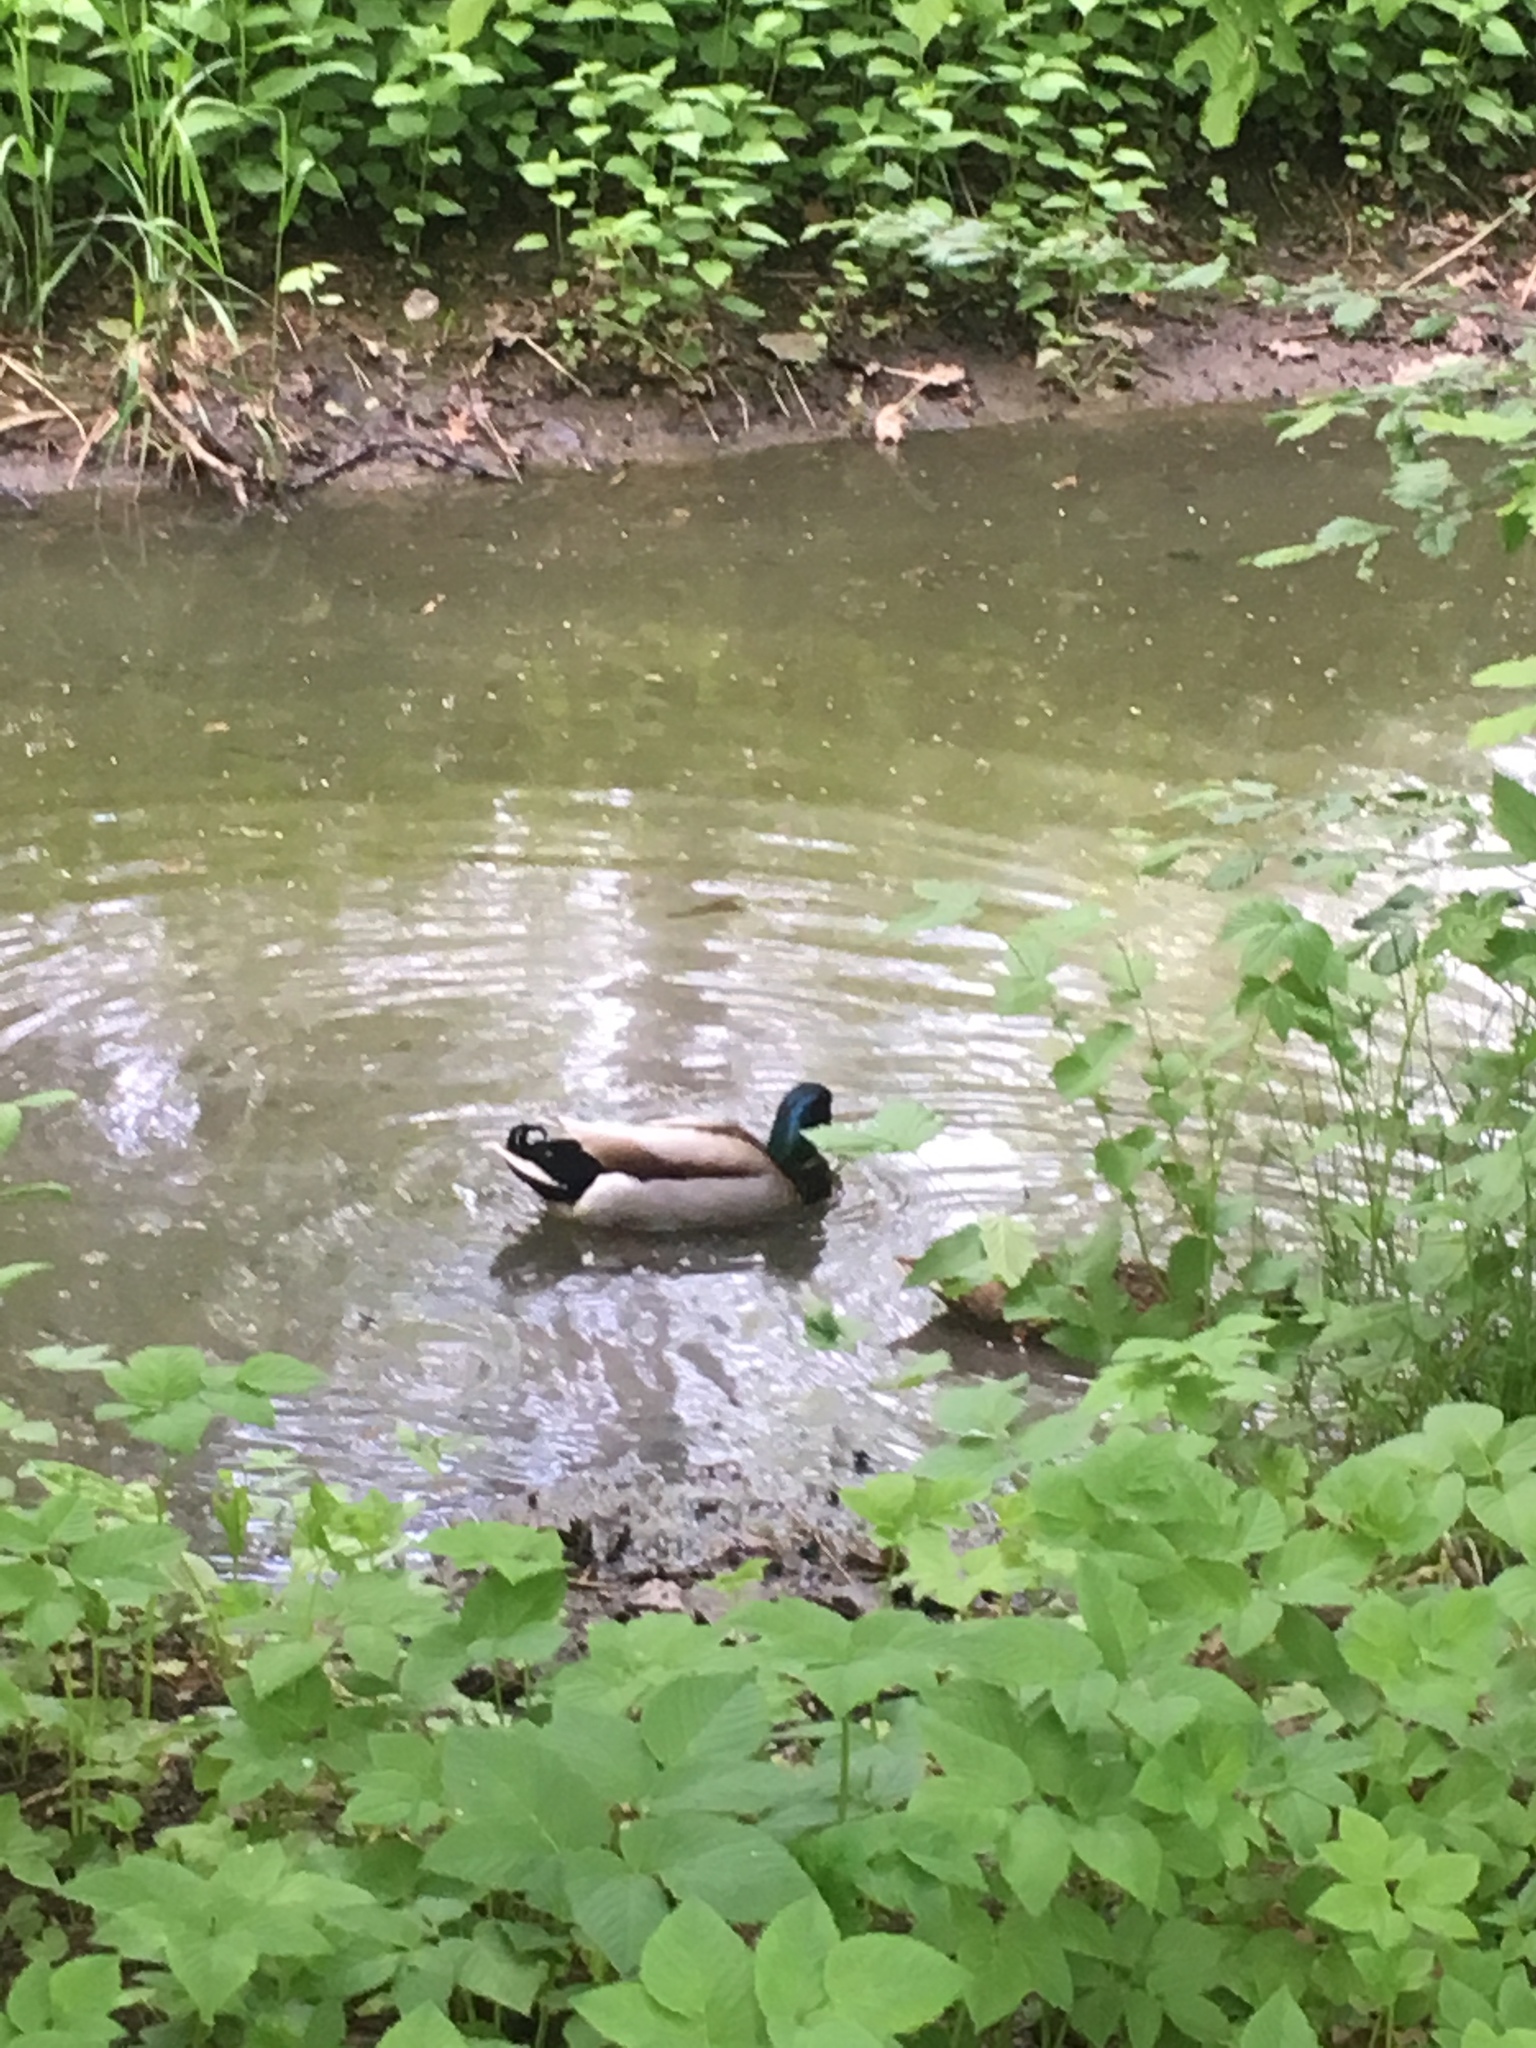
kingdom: Animalia
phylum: Chordata
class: Aves
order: Anseriformes
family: Anatidae
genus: Anas
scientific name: Anas platyrhynchos
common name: Mallard
